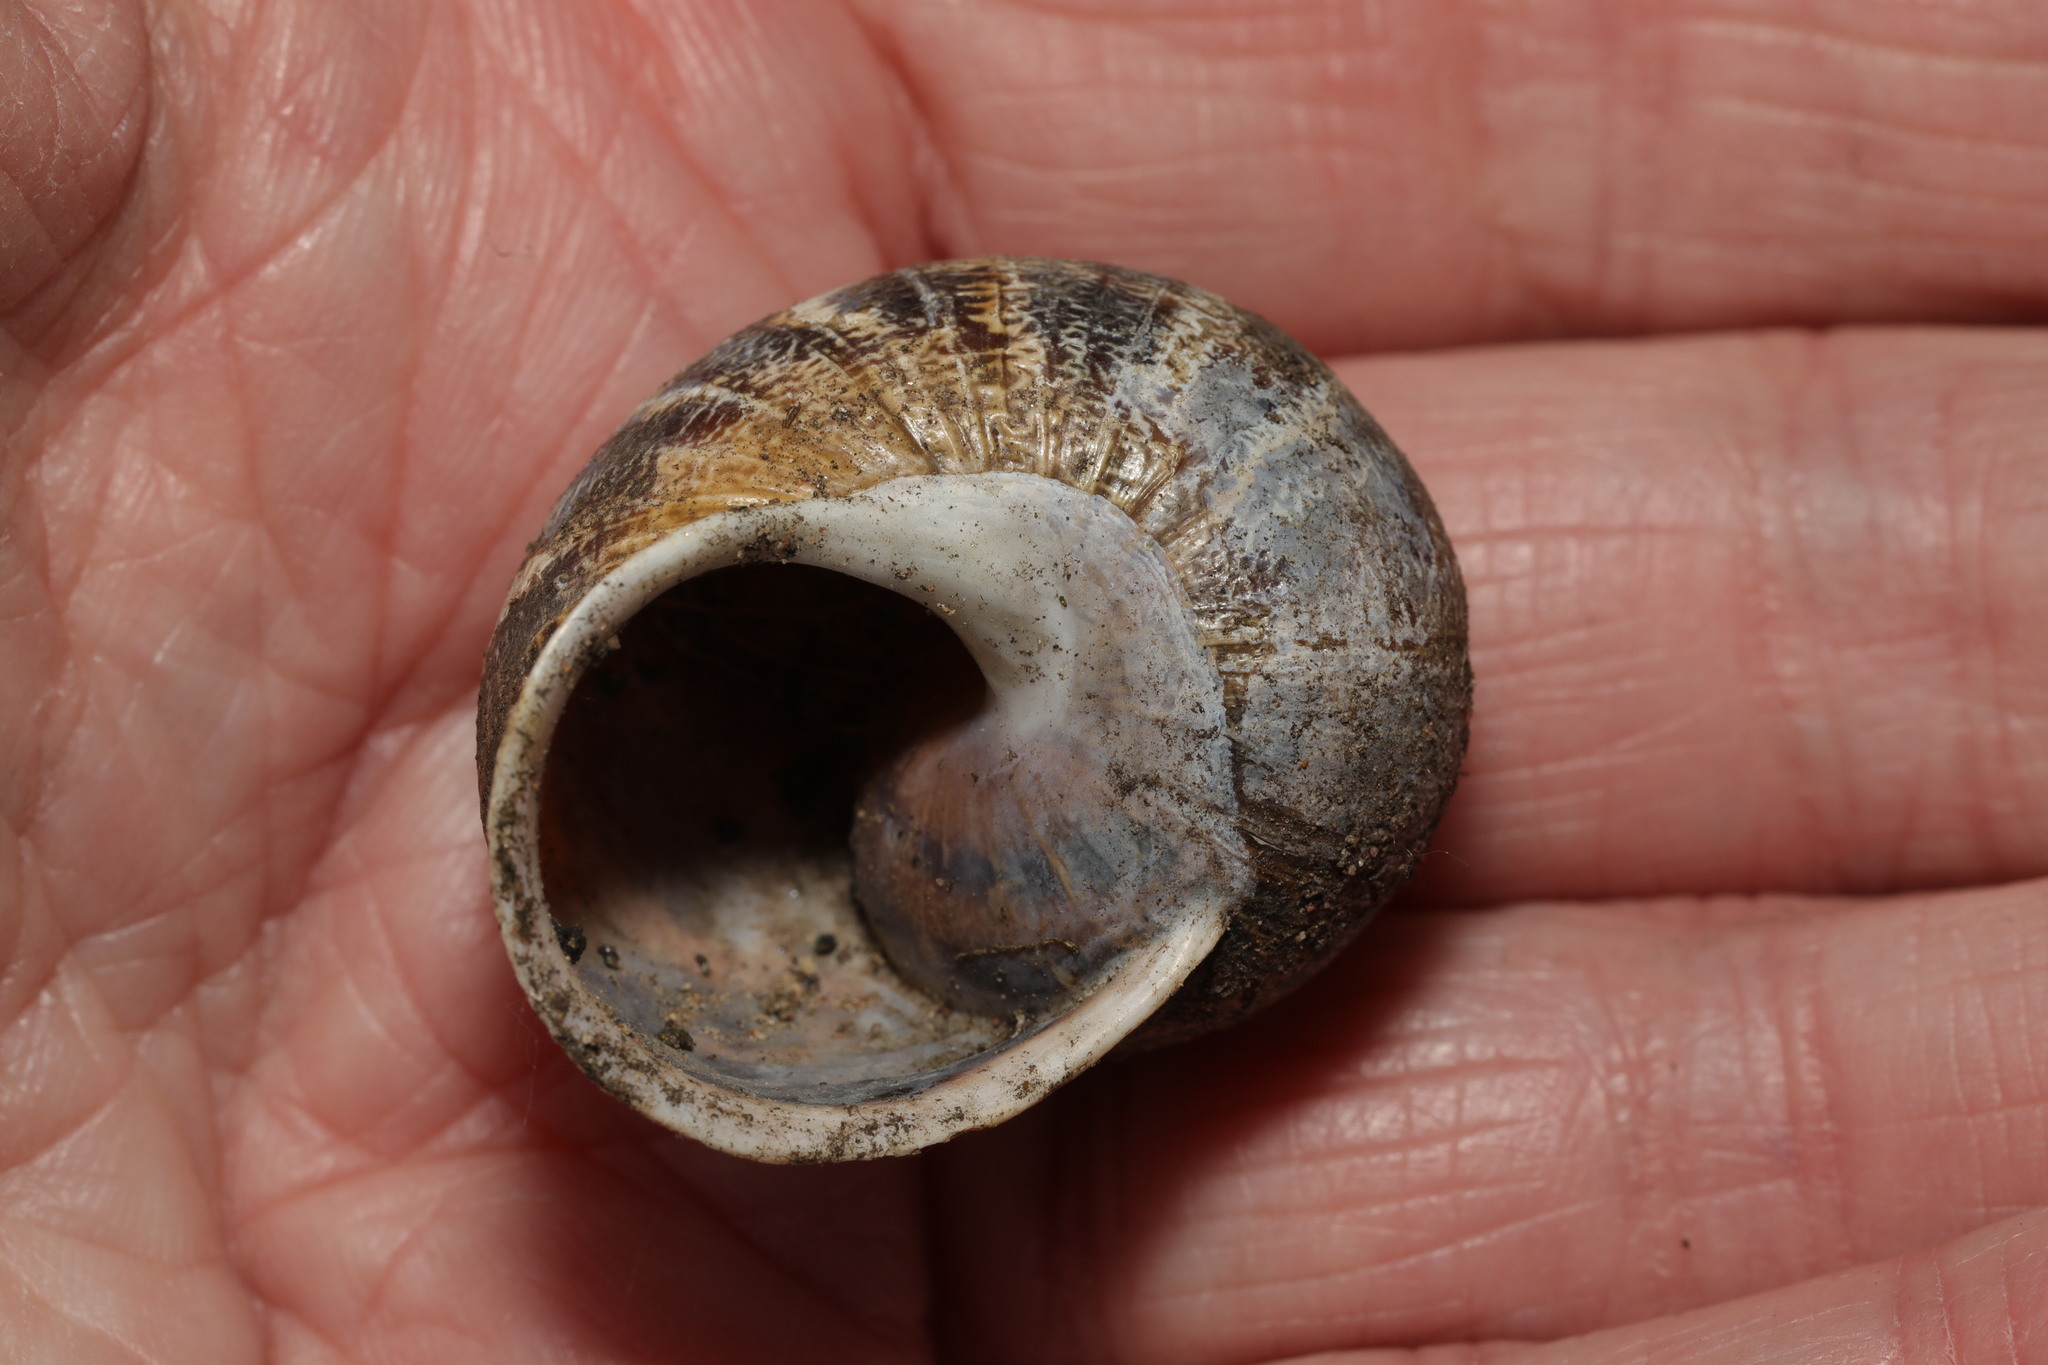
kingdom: Animalia
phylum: Mollusca
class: Gastropoda
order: Stylommatophora
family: Helicidae
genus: Cornu
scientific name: Cornu aspersum
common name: Brown garden snail
